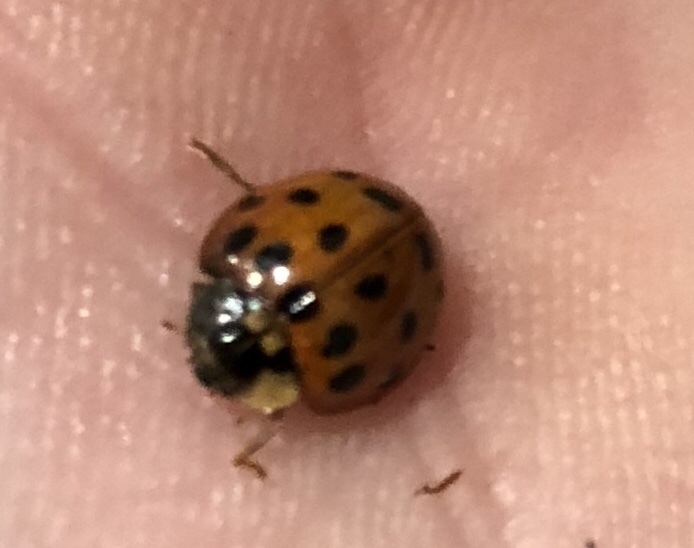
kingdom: Animalia
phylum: Arthropoda
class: Insecta
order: Coleoptera
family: Coccinellidae
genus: Harmonia
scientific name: Harmonia axyridis
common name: Harlequin ladybird
